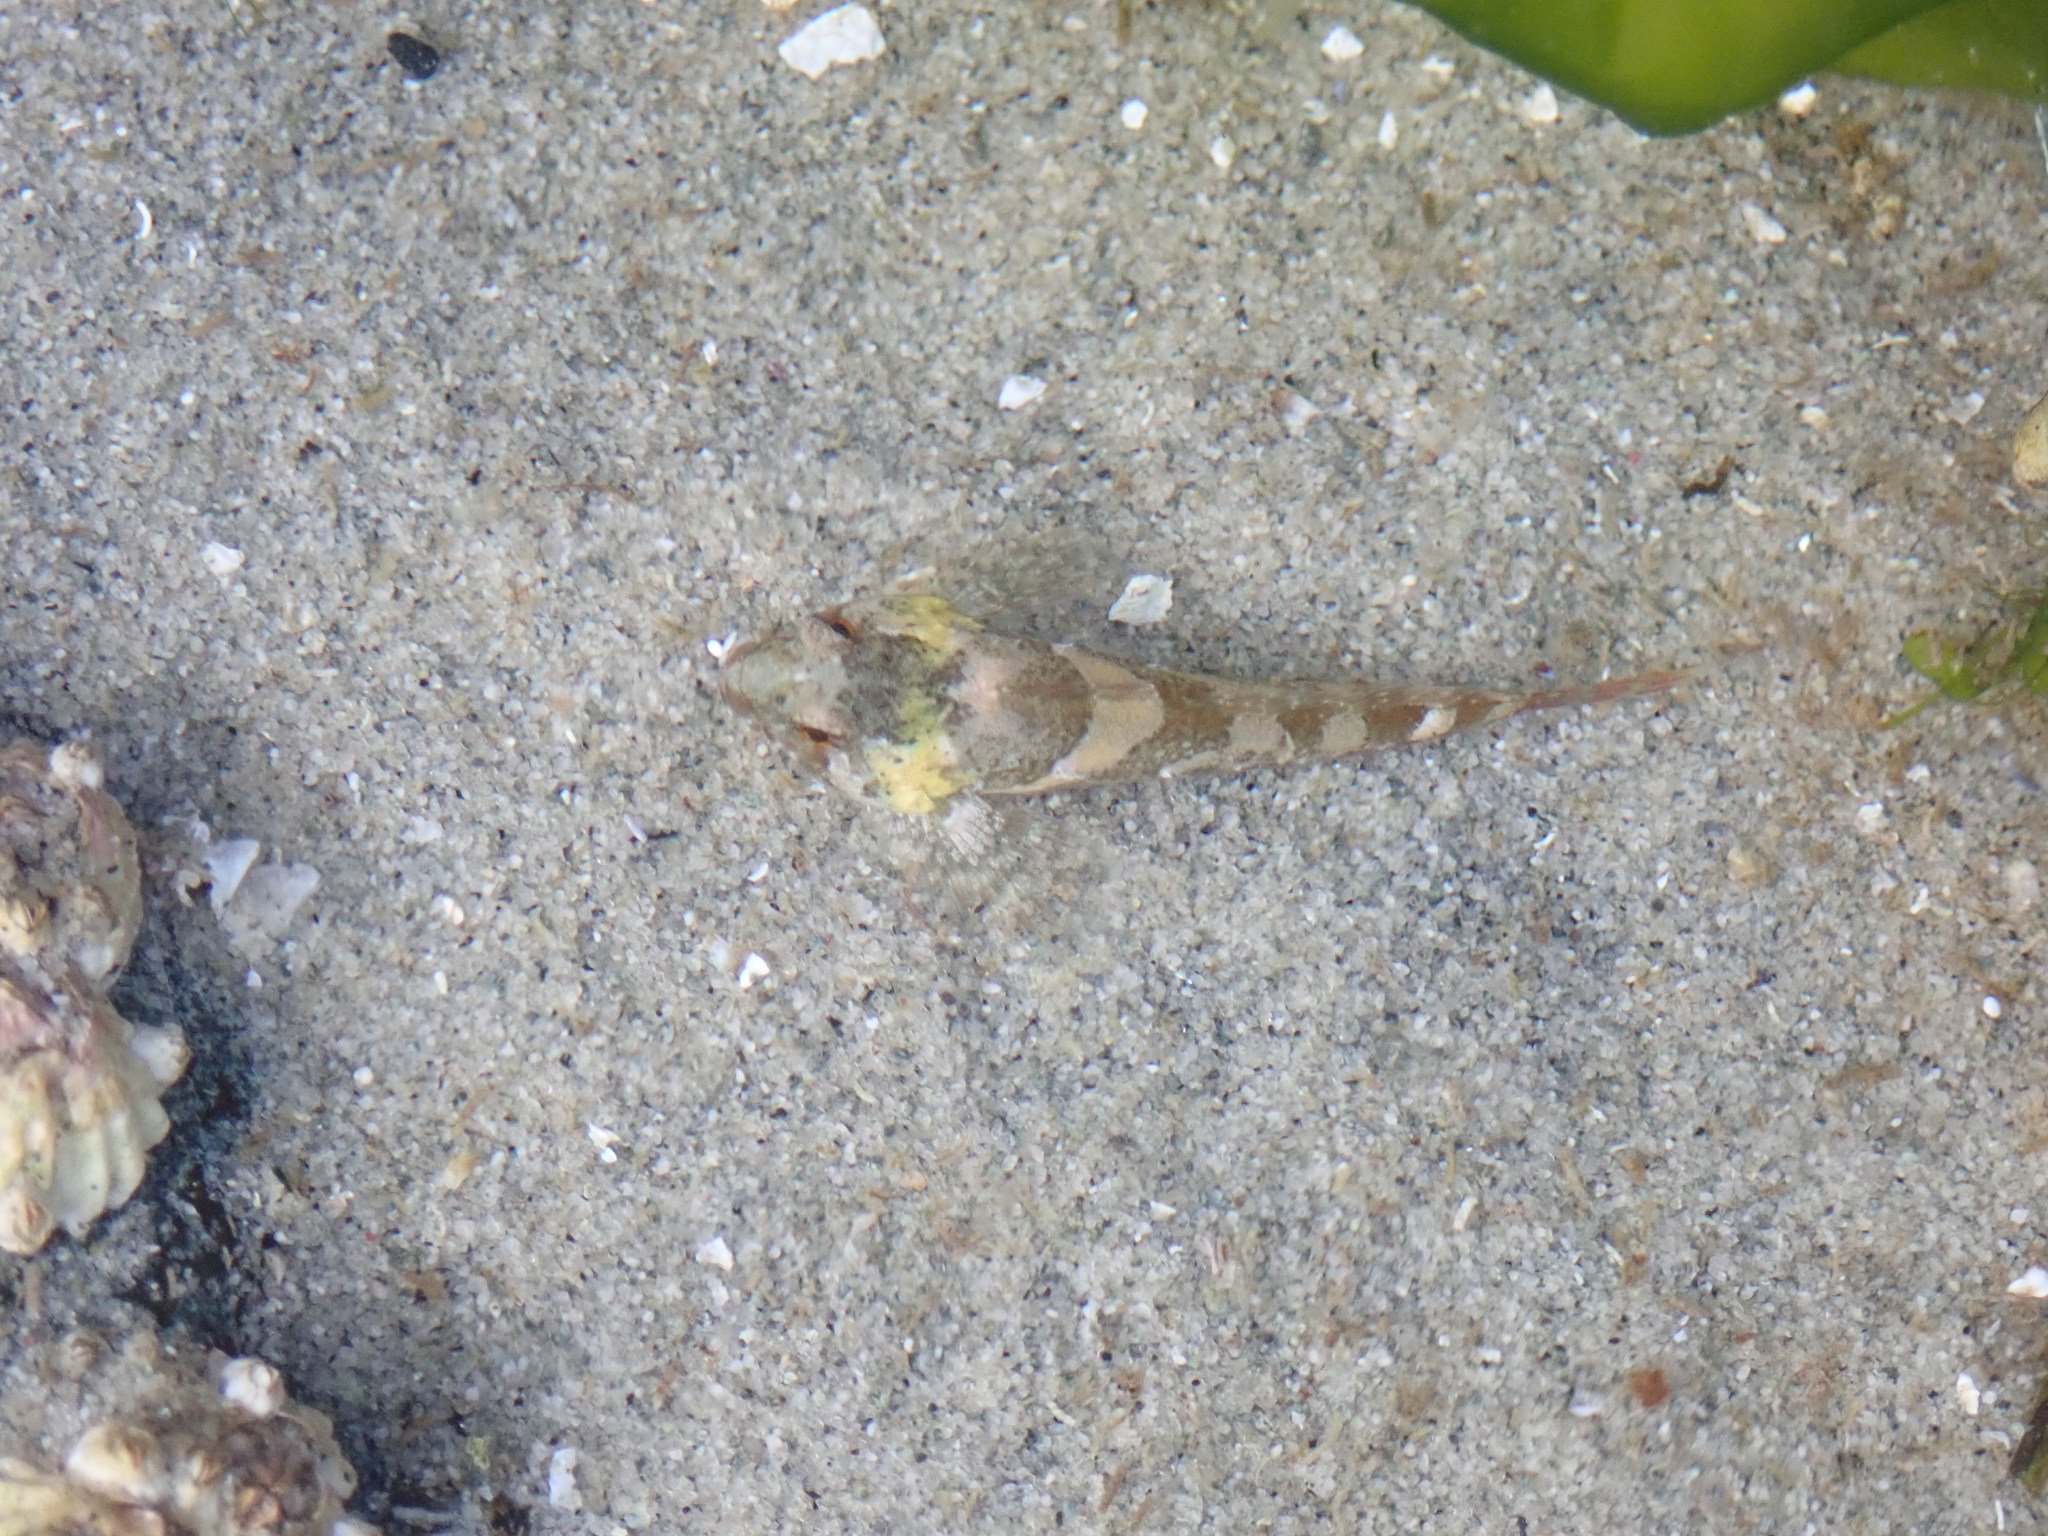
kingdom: Animalia
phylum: Chordata
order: Scorpaeniformes
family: Cottidae
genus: Oligocottus
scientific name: Oligocottus maculosus
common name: Tidepool sculpin
